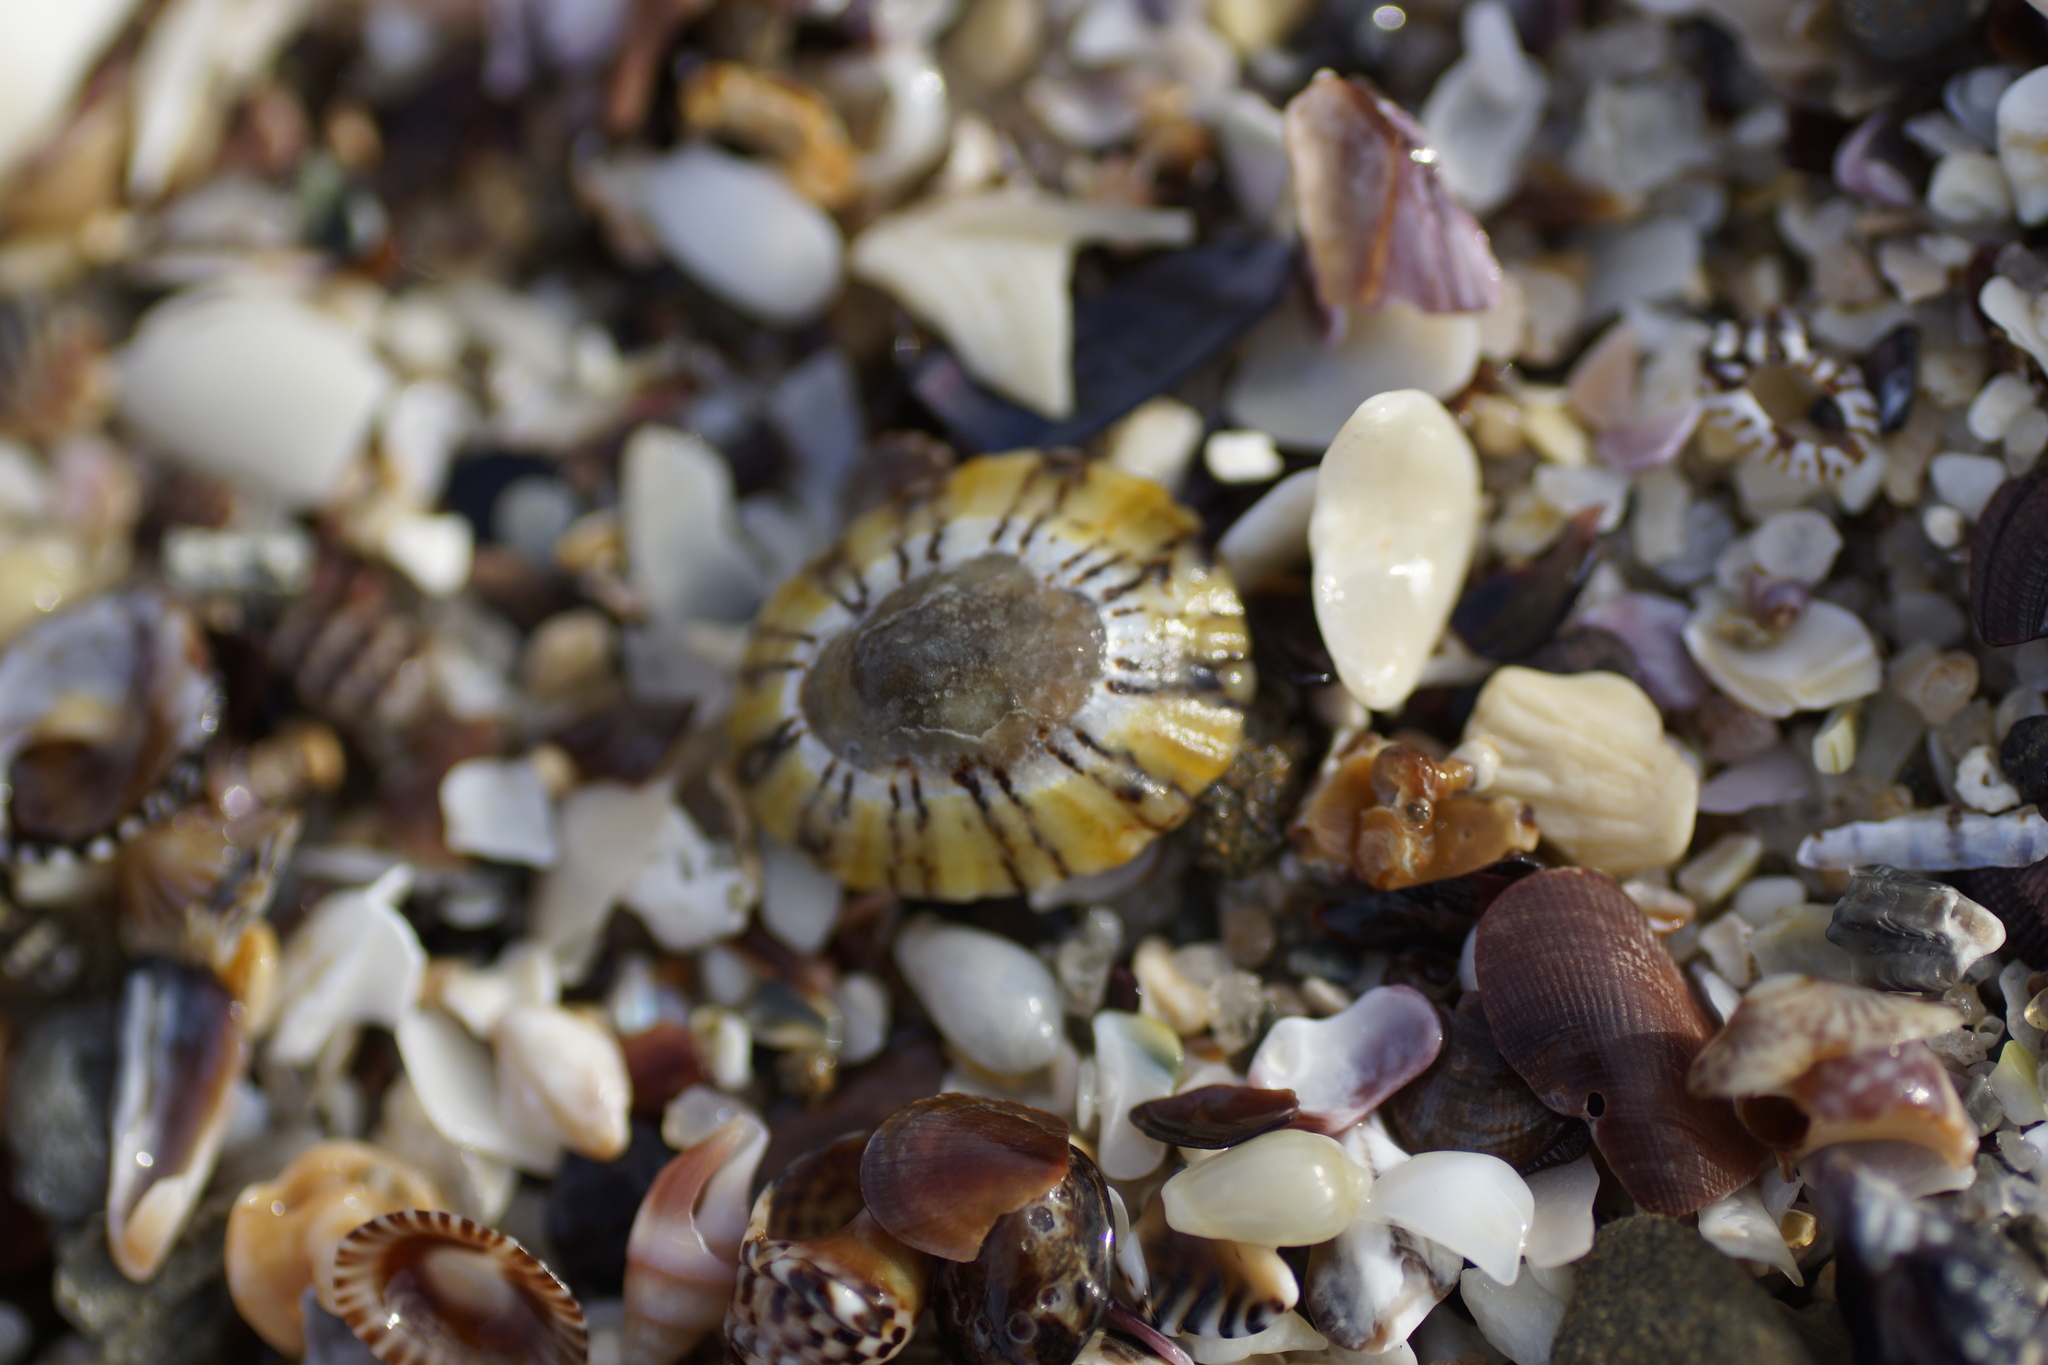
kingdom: Animalia
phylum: Mollusca
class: Gastropoda
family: Nacellidae
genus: Cellana
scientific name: Cellana tramoserica
